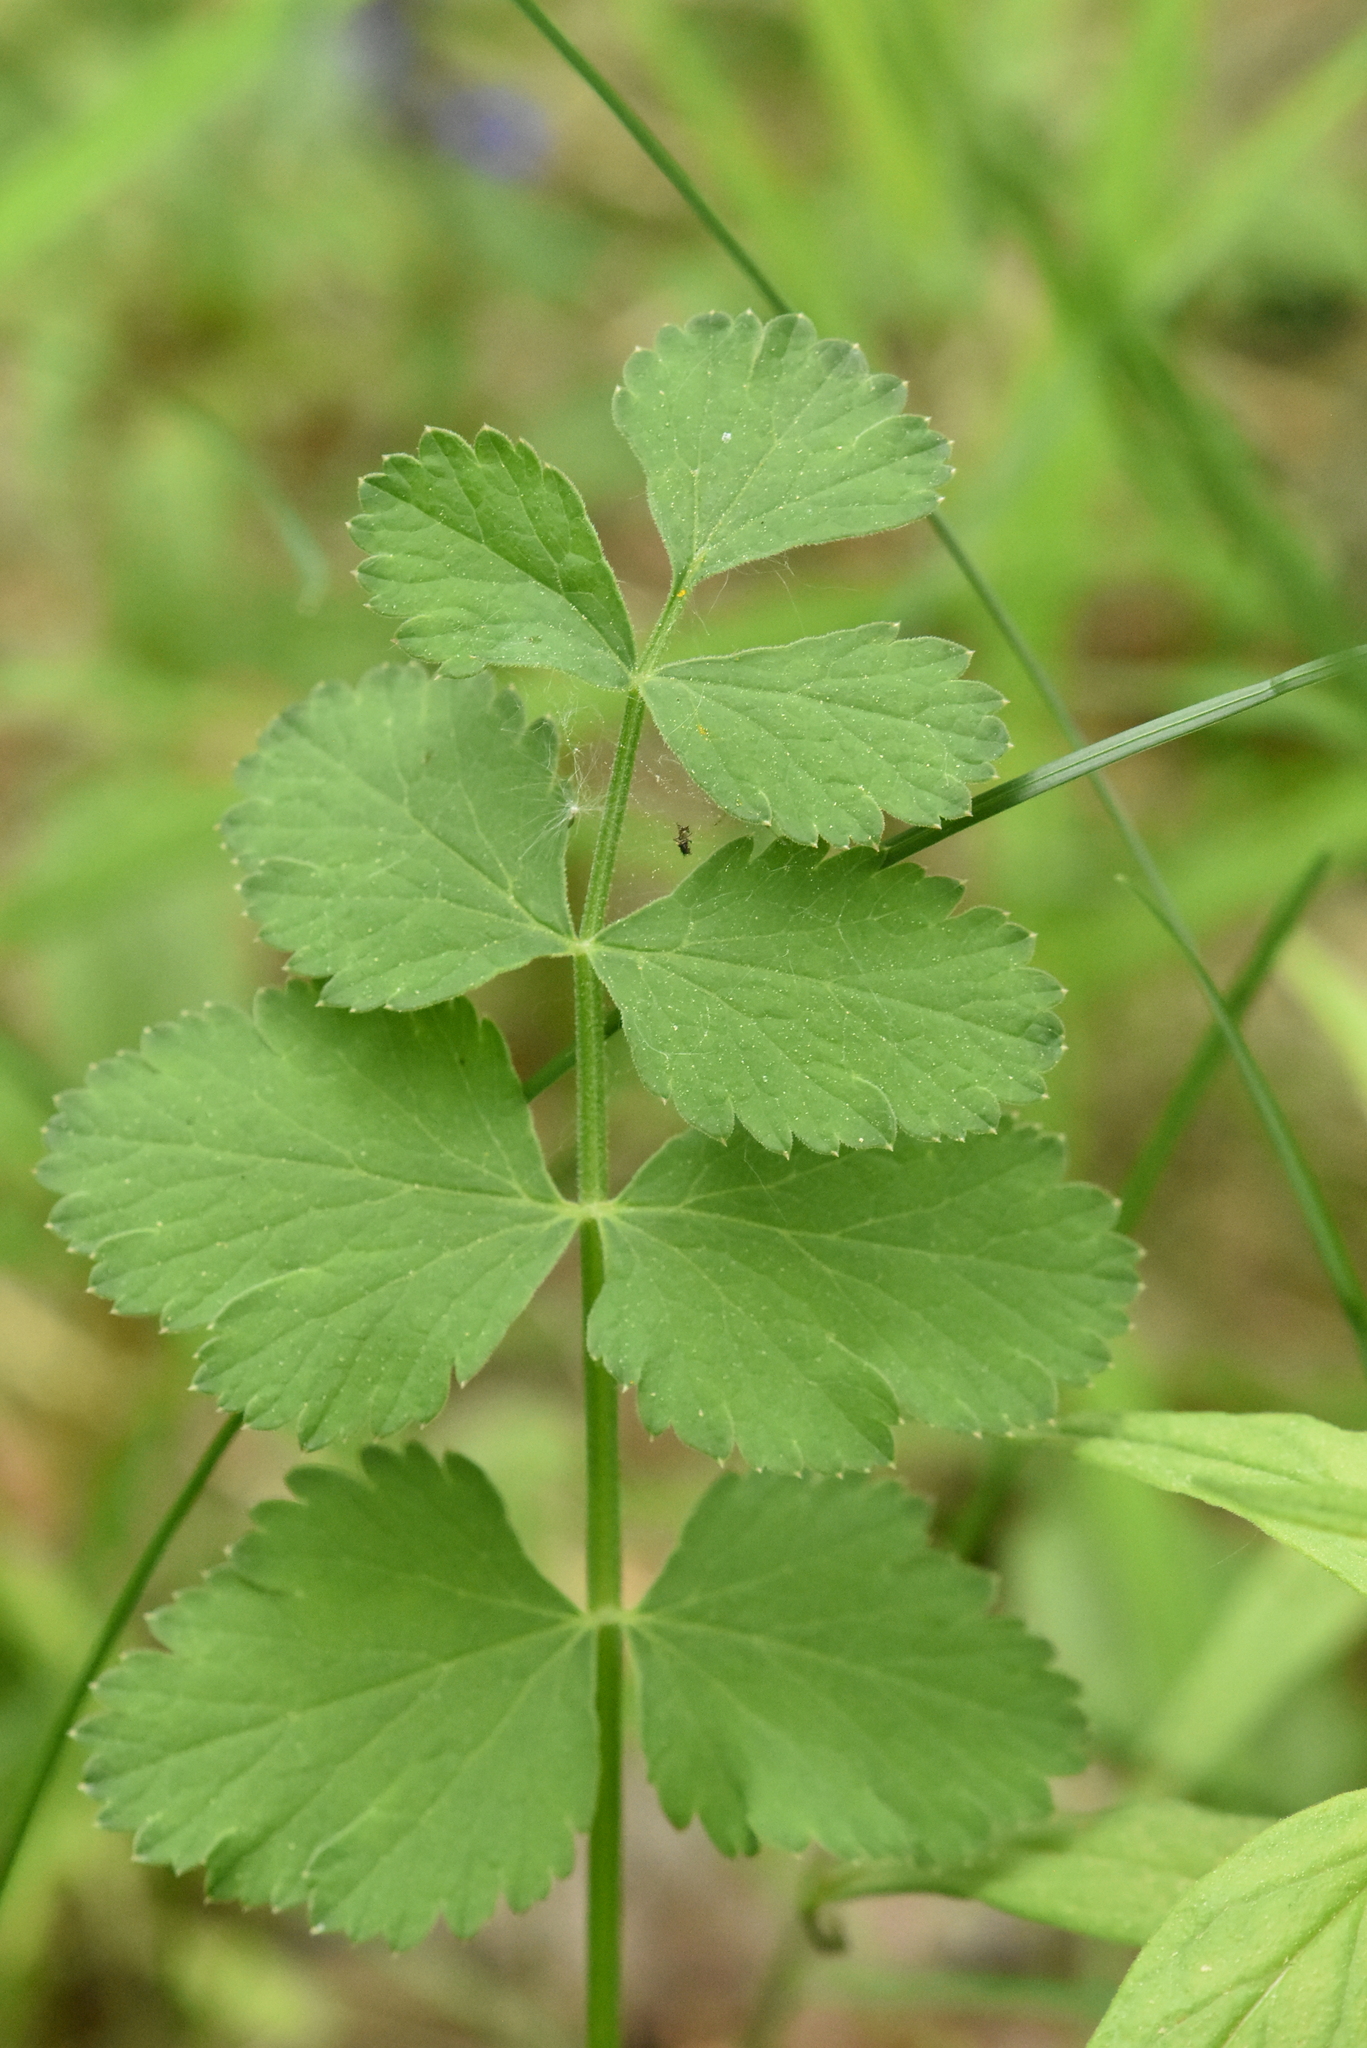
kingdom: Plantae
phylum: Tracheophyta
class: Magnoliopsida
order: Apiales
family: Apiaceae
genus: Pimpinella
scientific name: Pimpinella saxifraga
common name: Burnet-saxifrage
